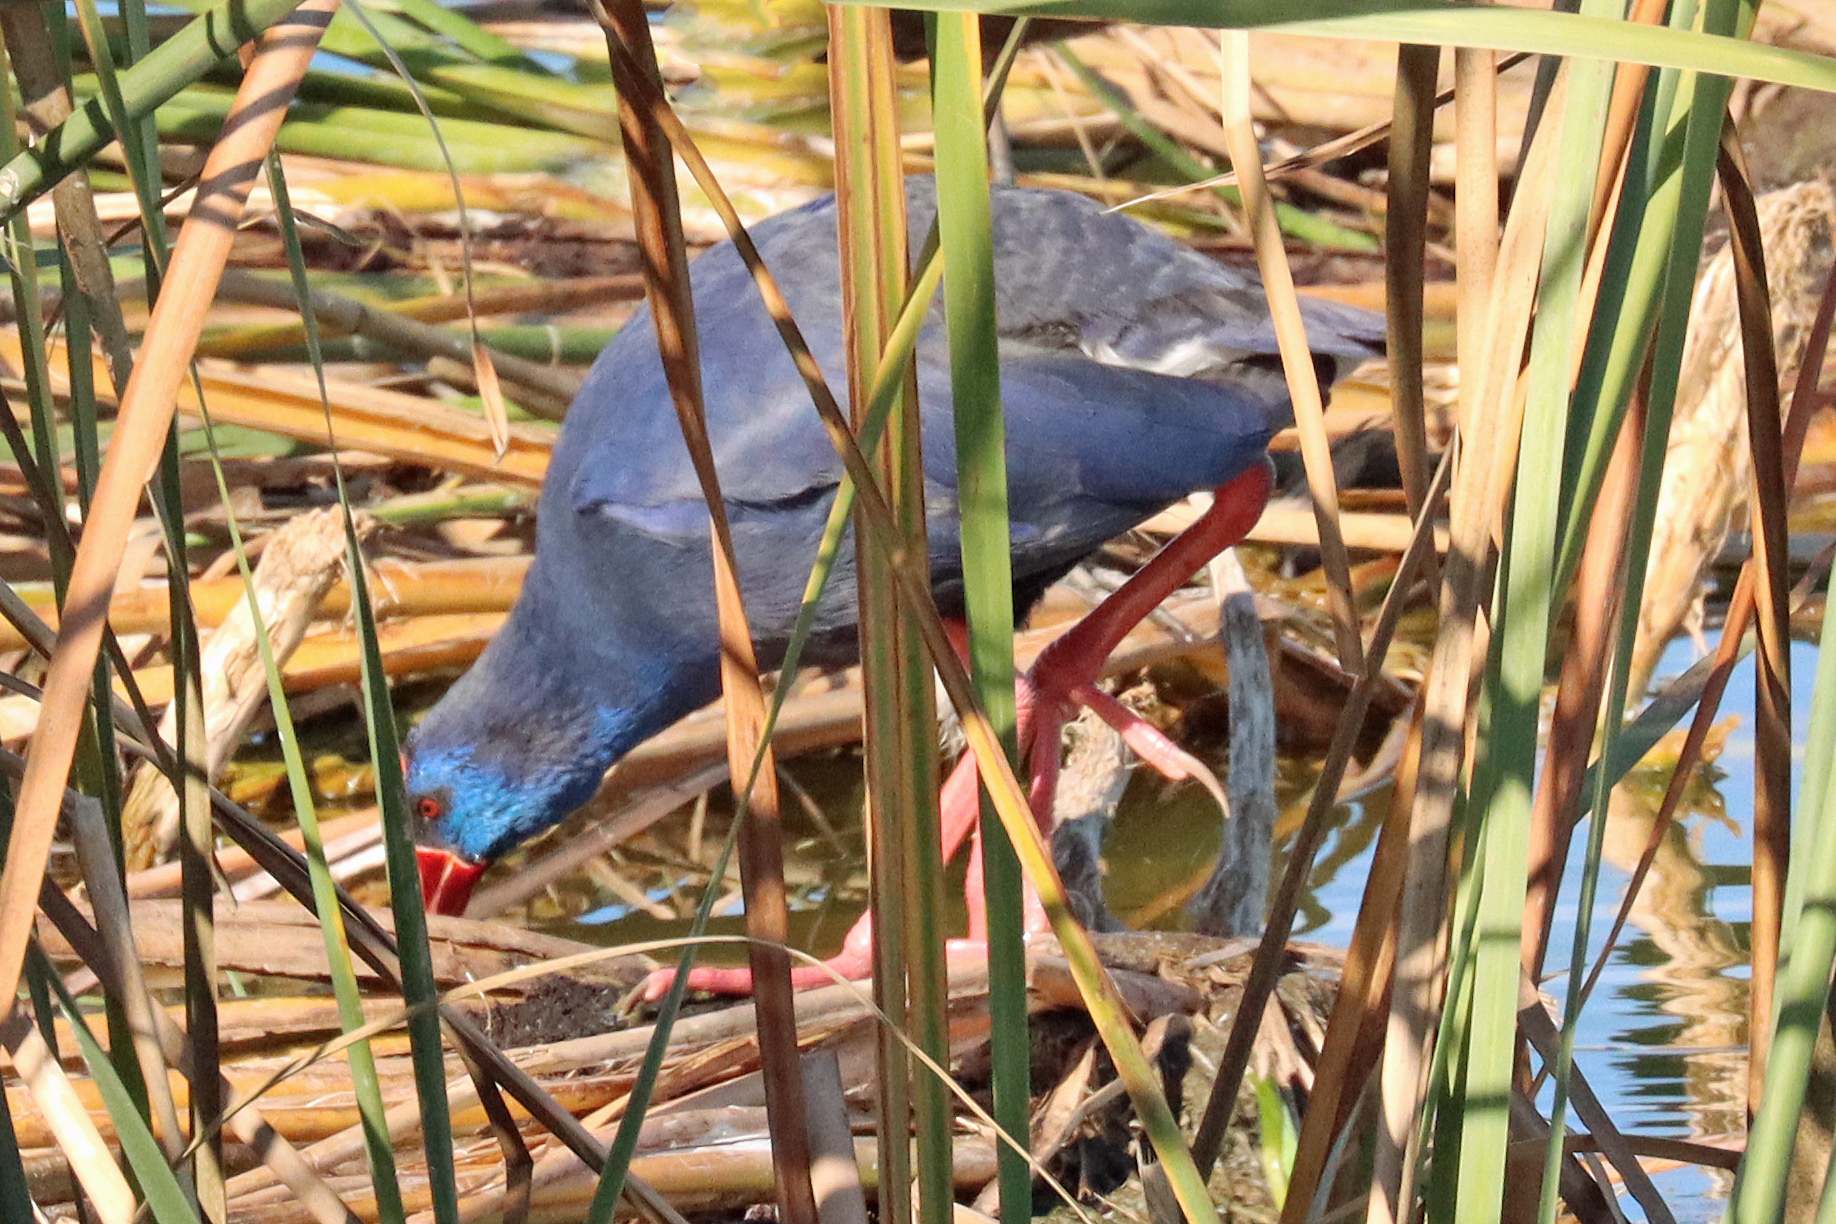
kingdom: Animalia
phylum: Chordata
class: Aves
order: Gruiformes
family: Rallidae
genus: Porphyrio
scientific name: Porphyrio porphyrio
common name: Purple swamphen
